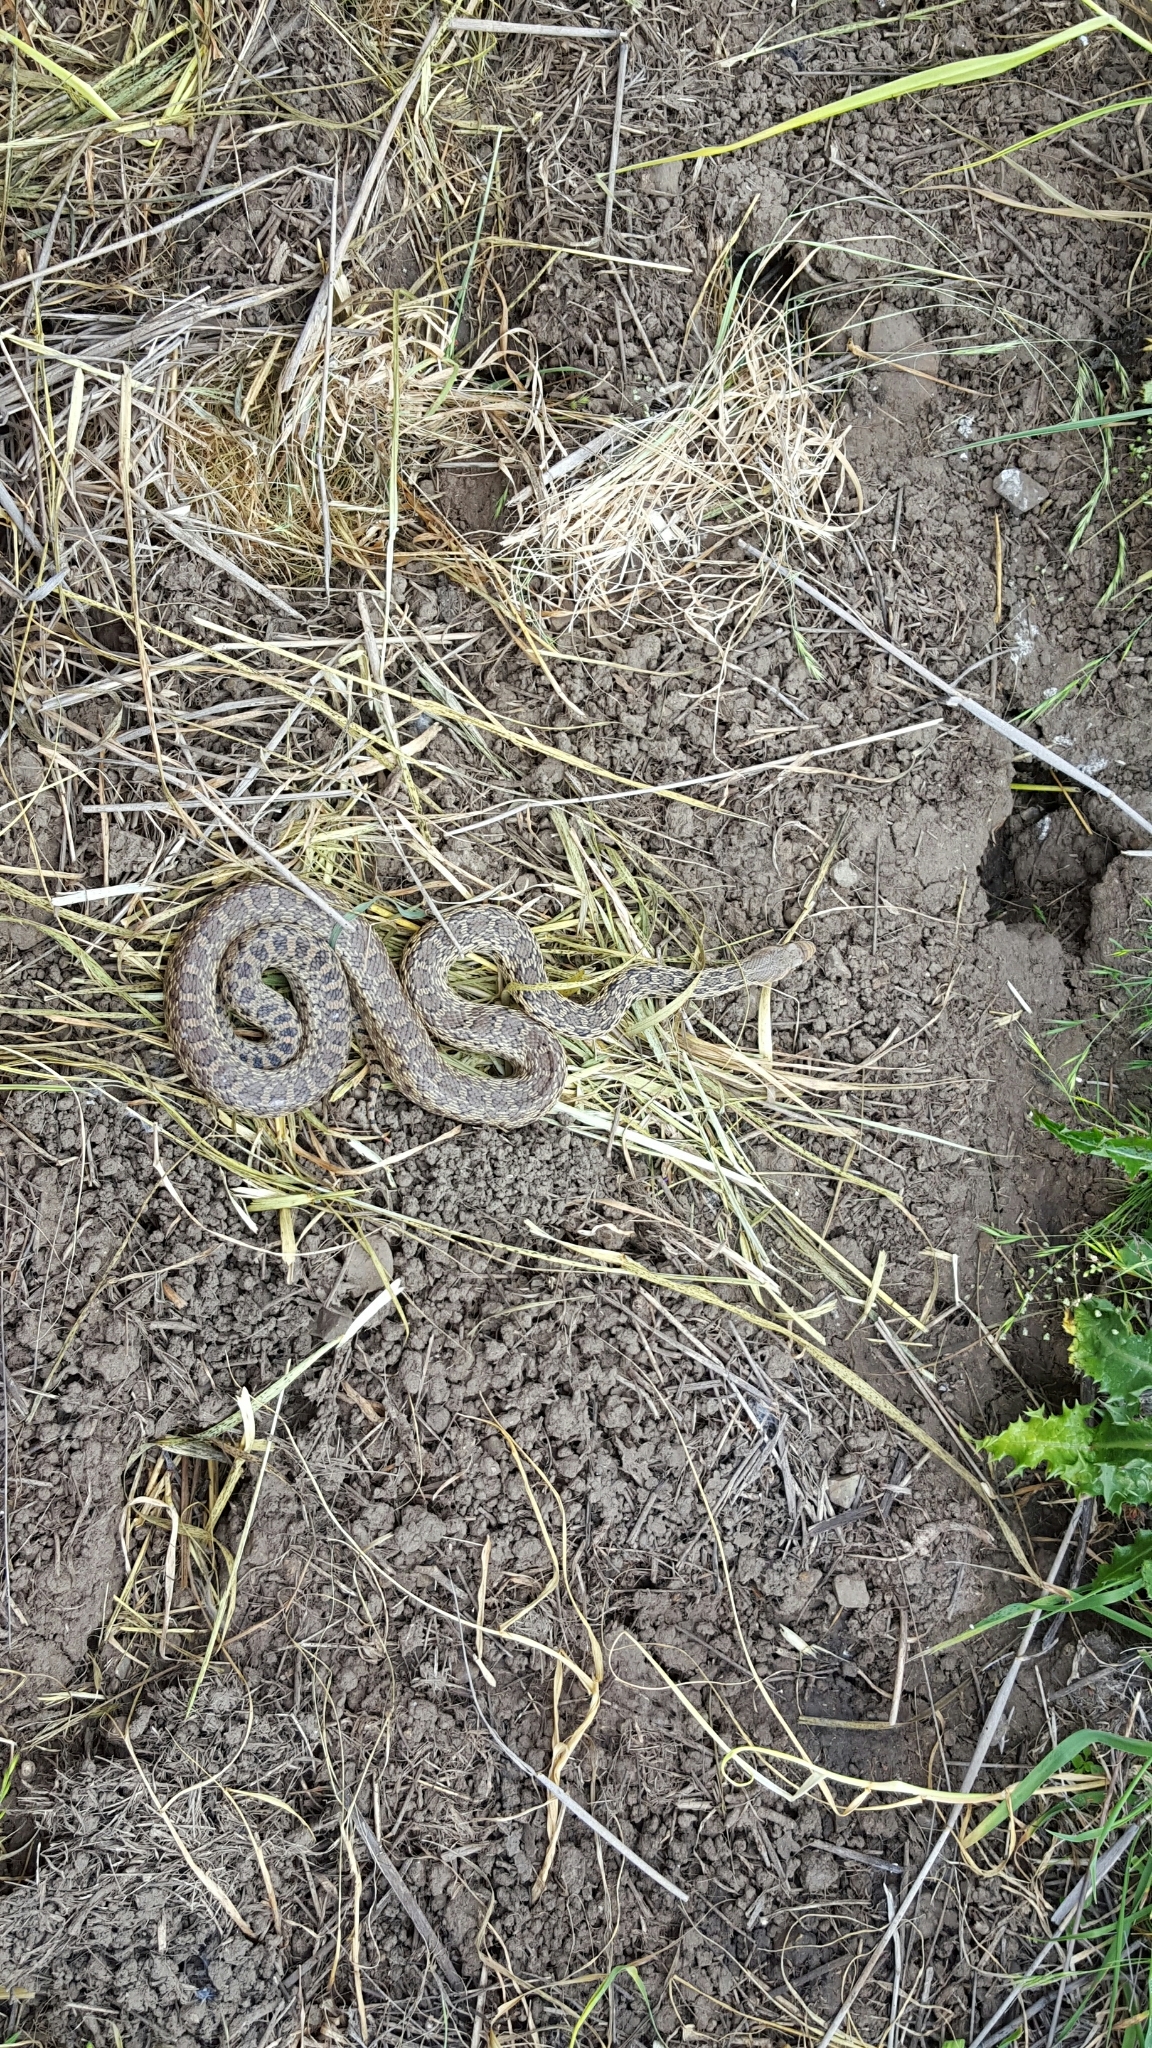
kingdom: Animalia
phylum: Chordata
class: Squamata
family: Colubridae
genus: Pituophis
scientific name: Pituophis catenifer
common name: Gopher snake
